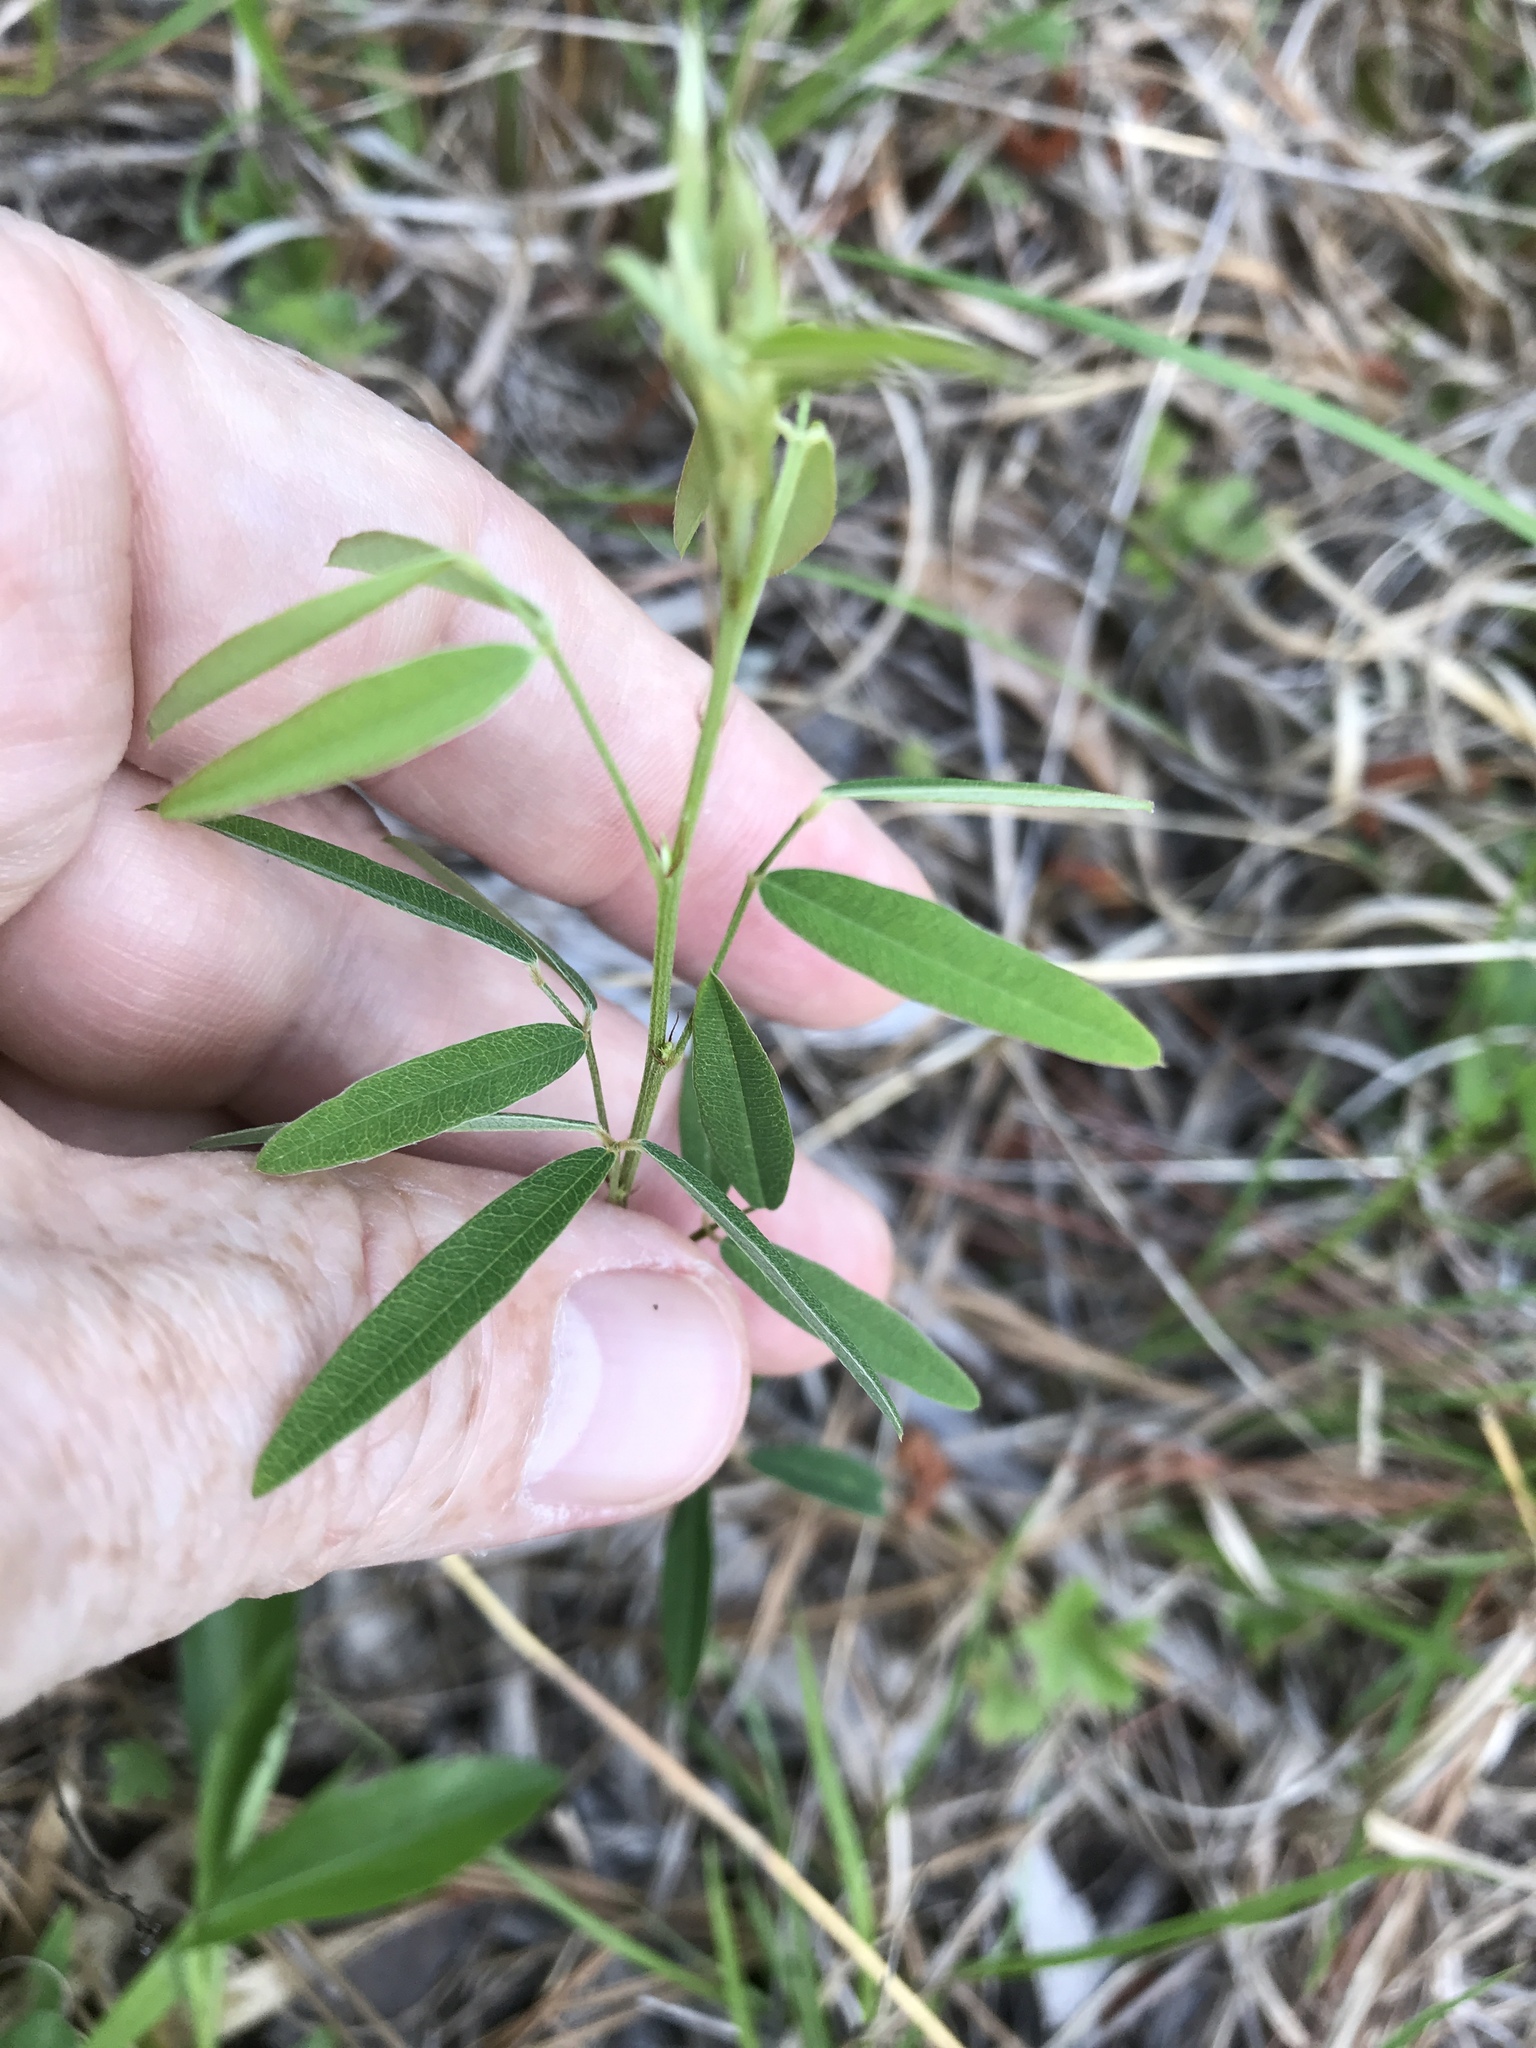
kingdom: Plantae
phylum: Tracheophyta
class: Magnoliopsida
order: Fabales
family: Fabaceae
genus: Lespedeza
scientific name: Lespedeza virginica
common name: Slender bush-clover
